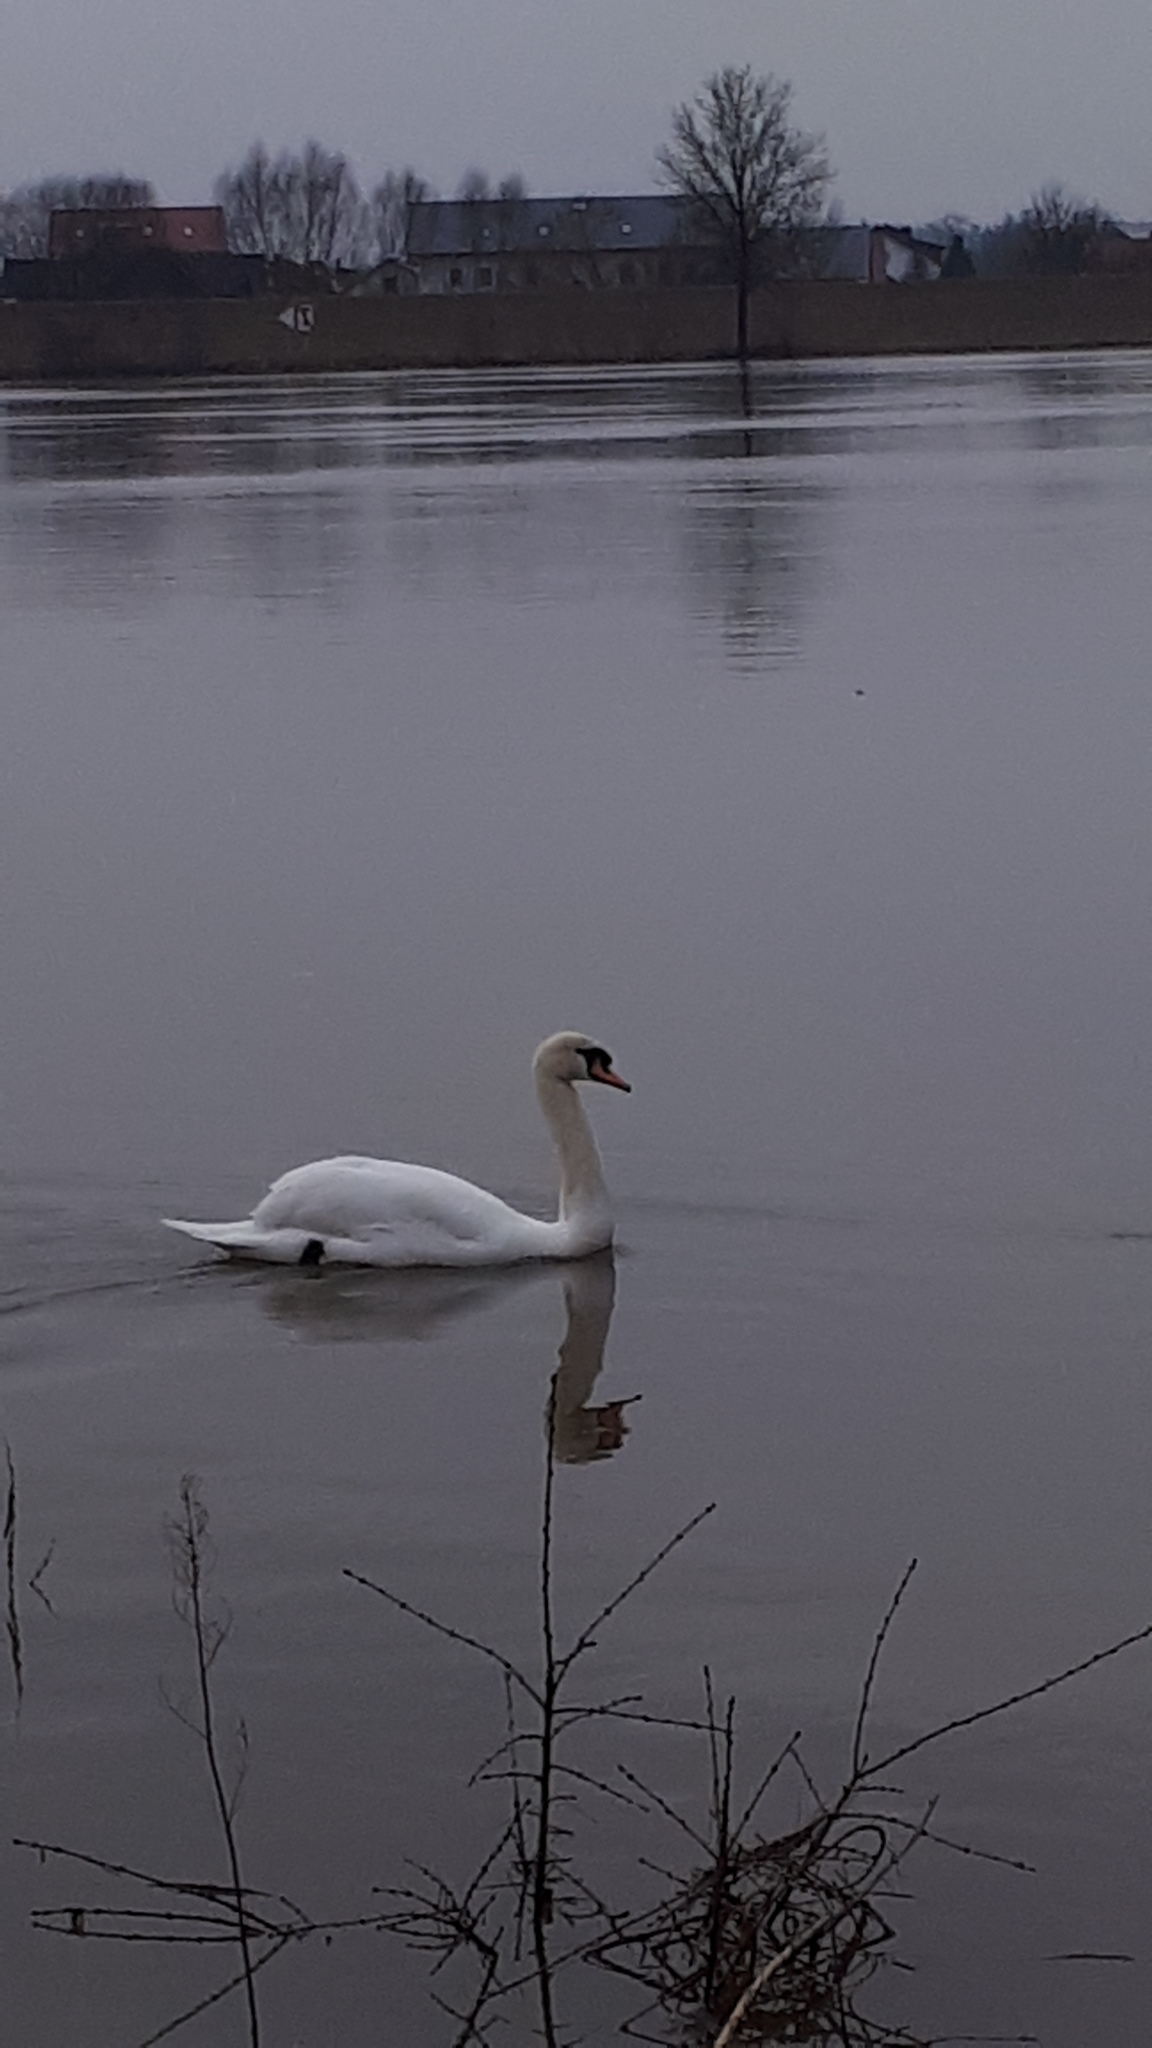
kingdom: Animalia
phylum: Chordata
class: Aves
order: Anseriformes
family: Anatidae
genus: Cygnus
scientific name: Cygnus olor
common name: Mute swan
